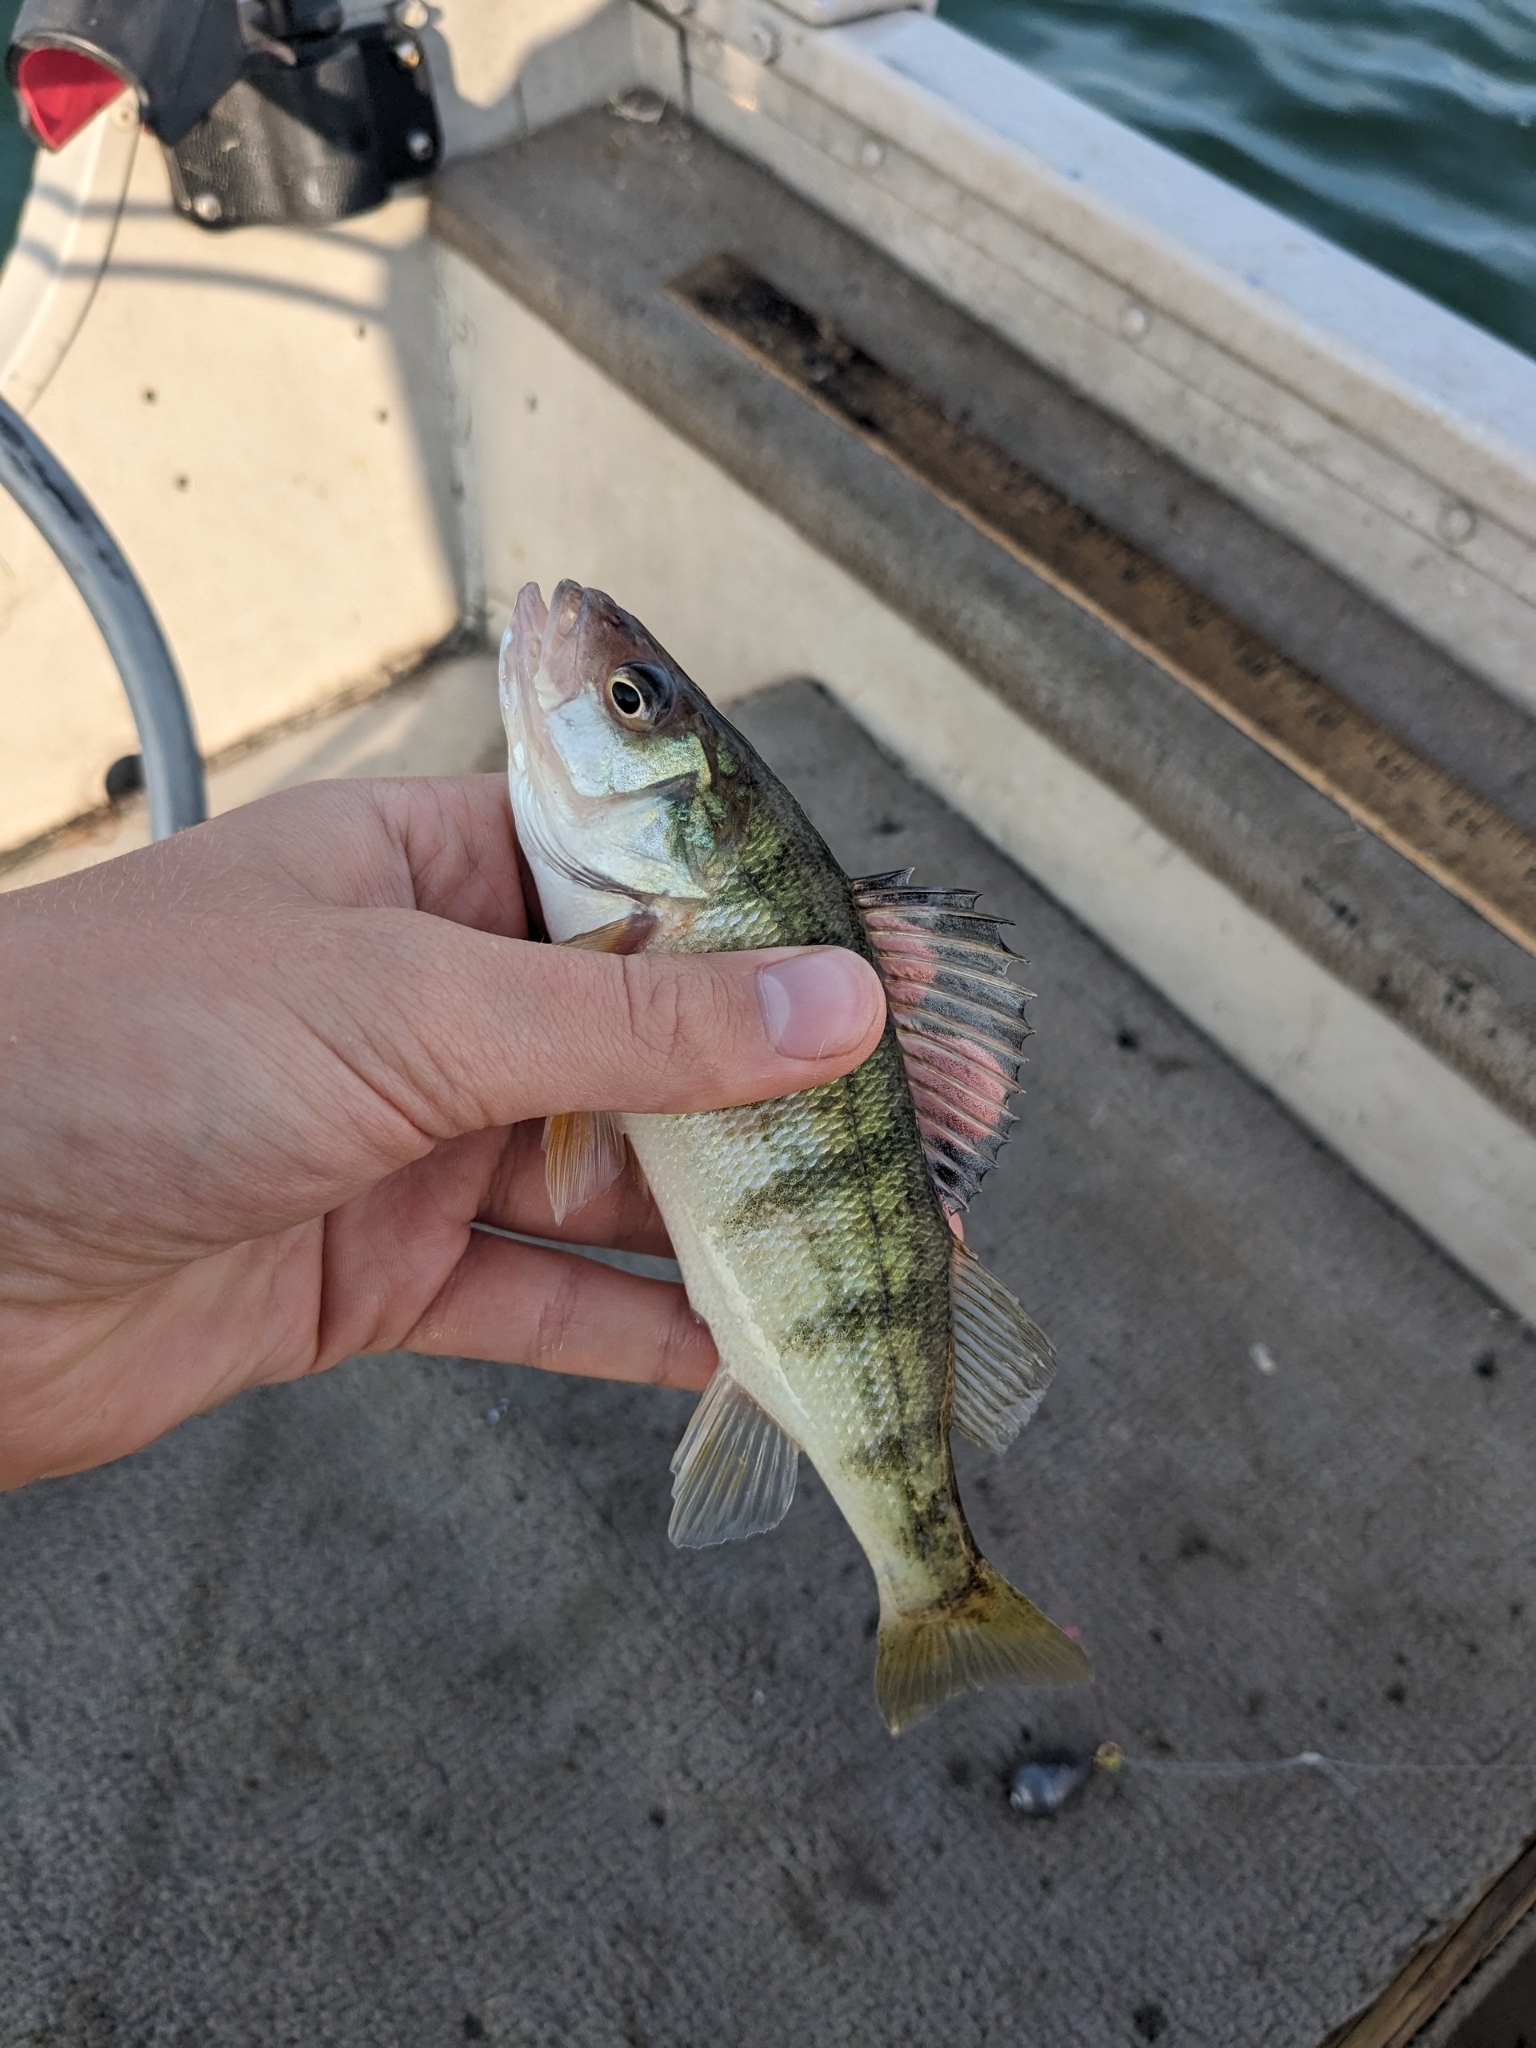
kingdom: Animalia
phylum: Chordata
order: Perciformes
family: Percidae
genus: Perca
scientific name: Perca flavescens
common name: Yellow perch
